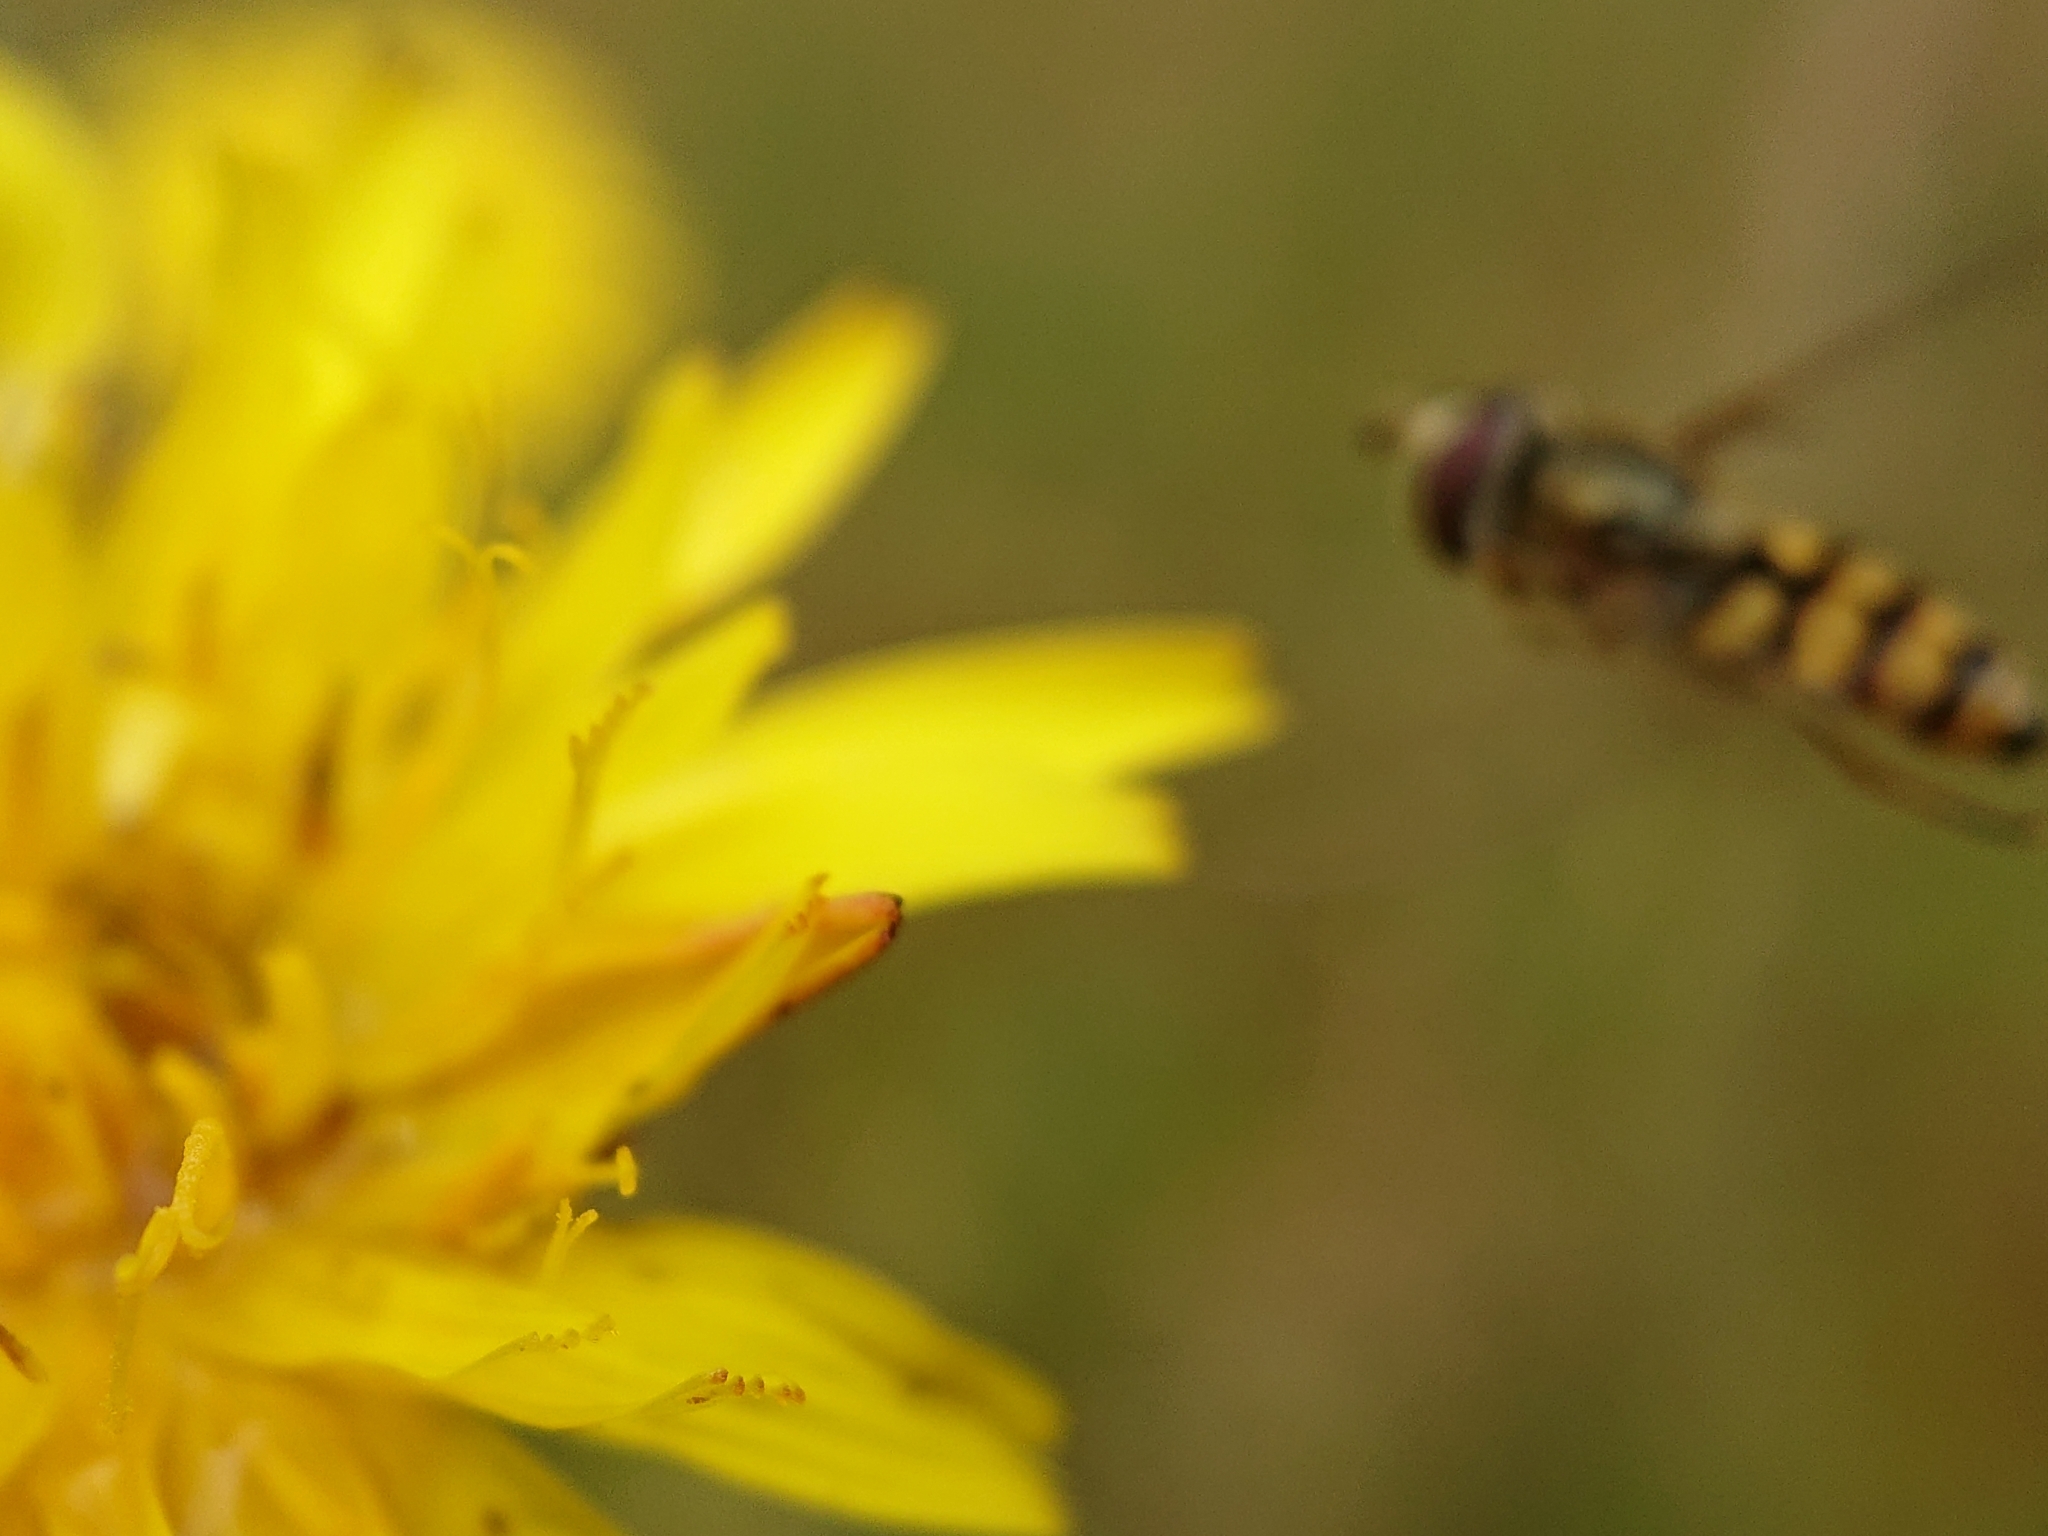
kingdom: Animalia
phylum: Arthropoda
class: Insecta
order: Diptera
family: Syrphidae
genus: Eupeodes
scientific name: Eupeodes corollae
